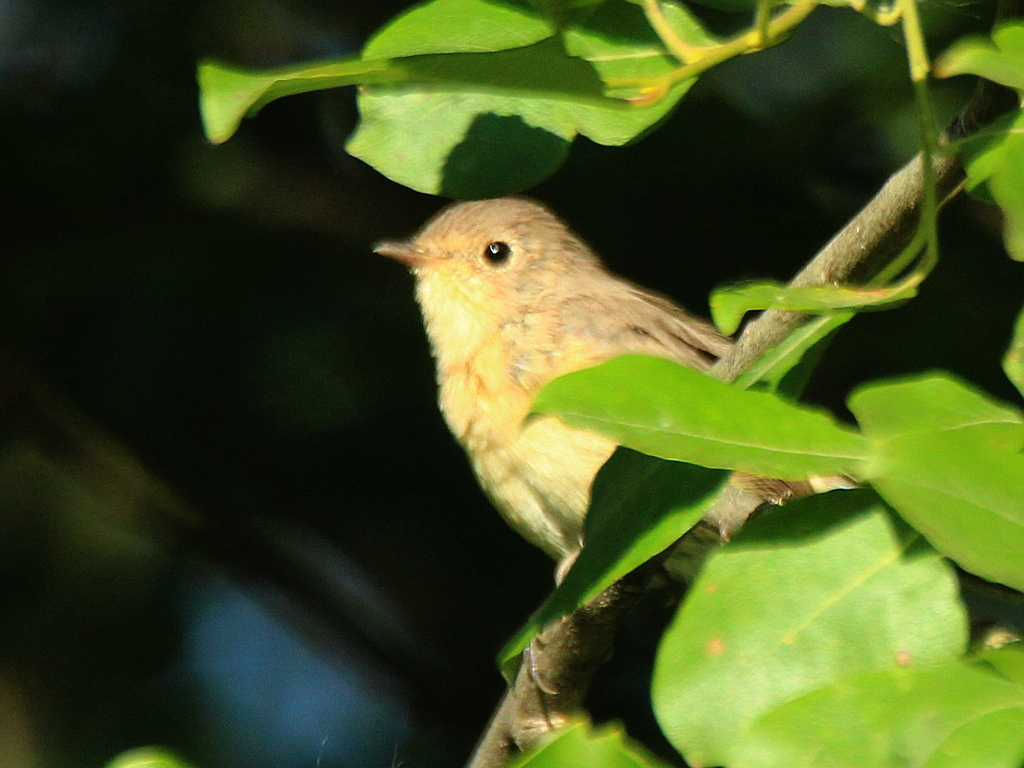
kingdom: Animalia
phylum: Chordata
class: Aves
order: Passeriformes
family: Muscicapidae
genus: Ficedula
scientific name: Ficedula parva
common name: Red-breasted flycatcher
